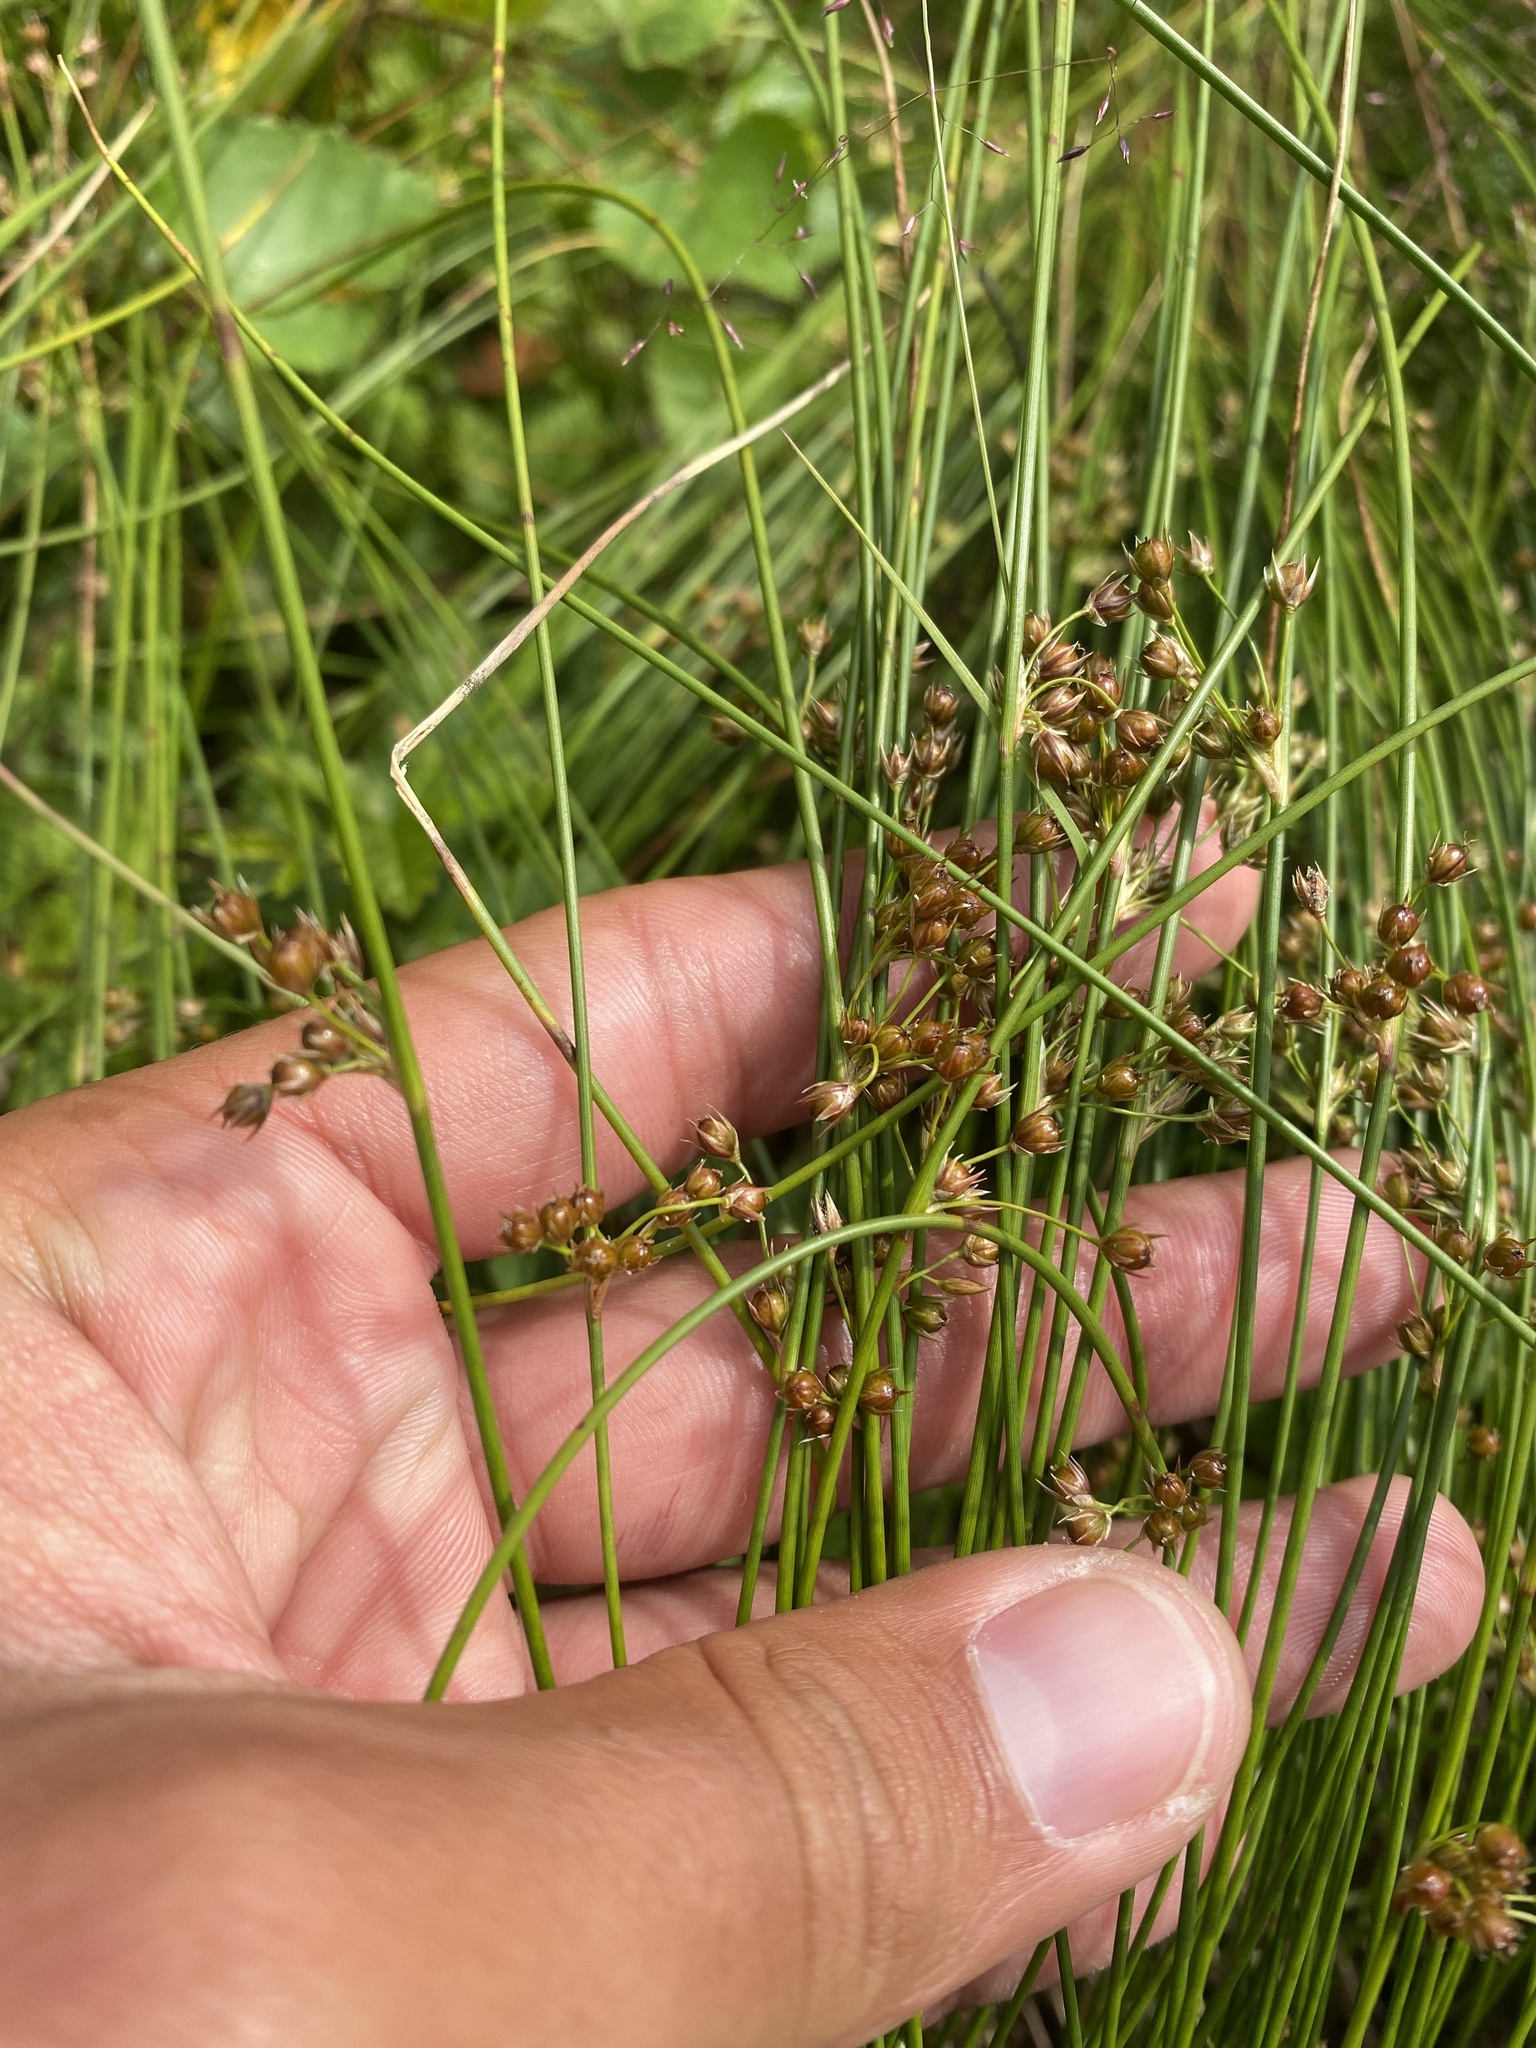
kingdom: Plantae
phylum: Tracheophyta
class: Liliopsida
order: Poales
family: Juncaceae
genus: Juncus
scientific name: Juncus filiformis
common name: Thread rush
